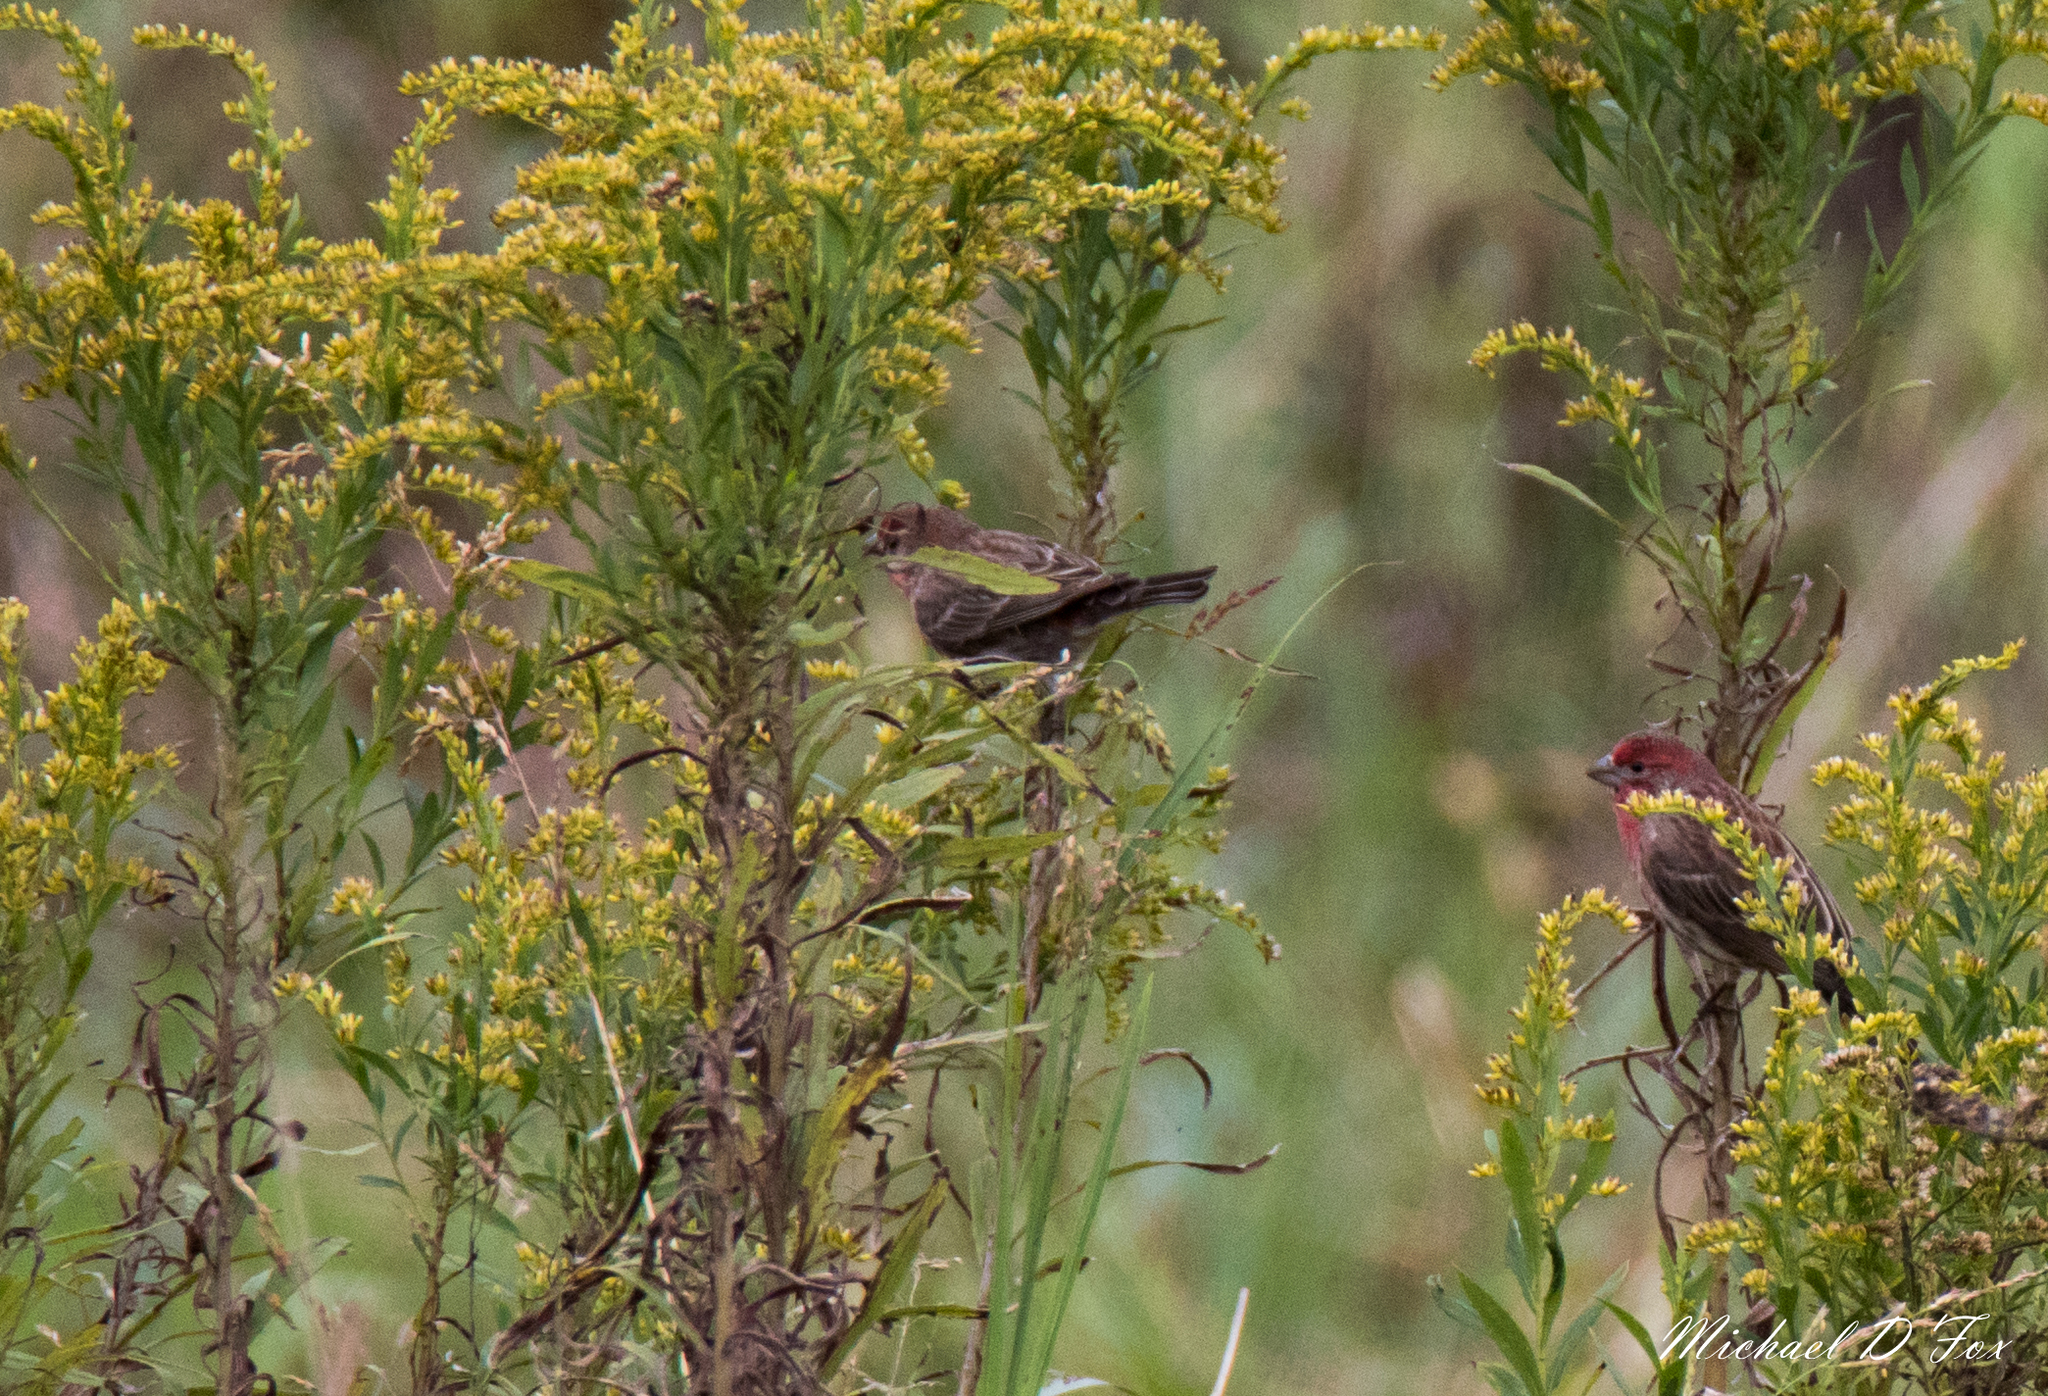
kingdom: Animalia
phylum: Chordata
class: Aves
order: Passeriformes
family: Fringillidae
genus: Haemorhous
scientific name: Haemorhous mexicanus
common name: House finch
